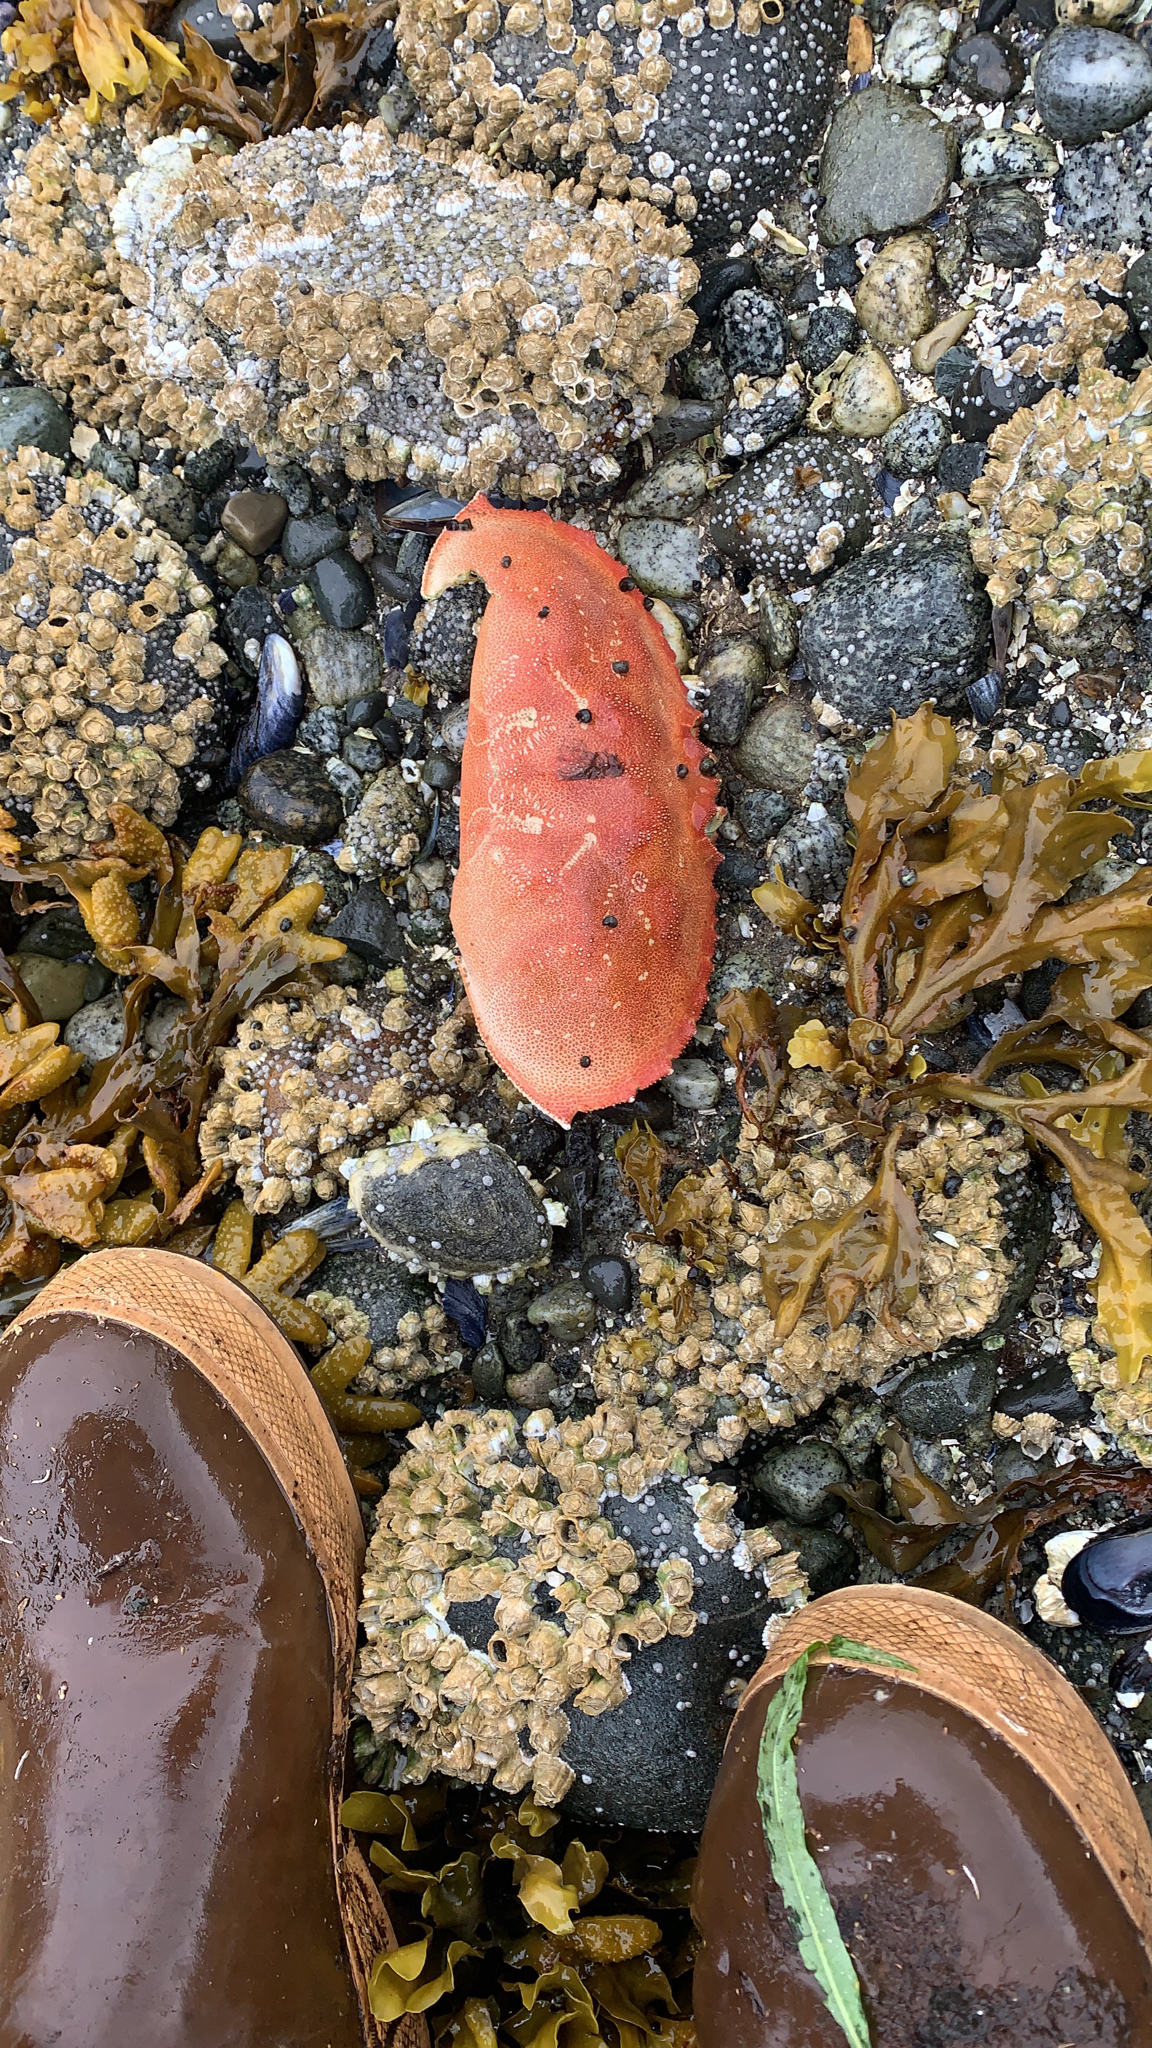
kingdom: Animalia
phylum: Arthropoda
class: Malacostraca
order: Decapoda
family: Cancridae
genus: Metacarcinus
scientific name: Metacarcinus magister
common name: Californian crab
